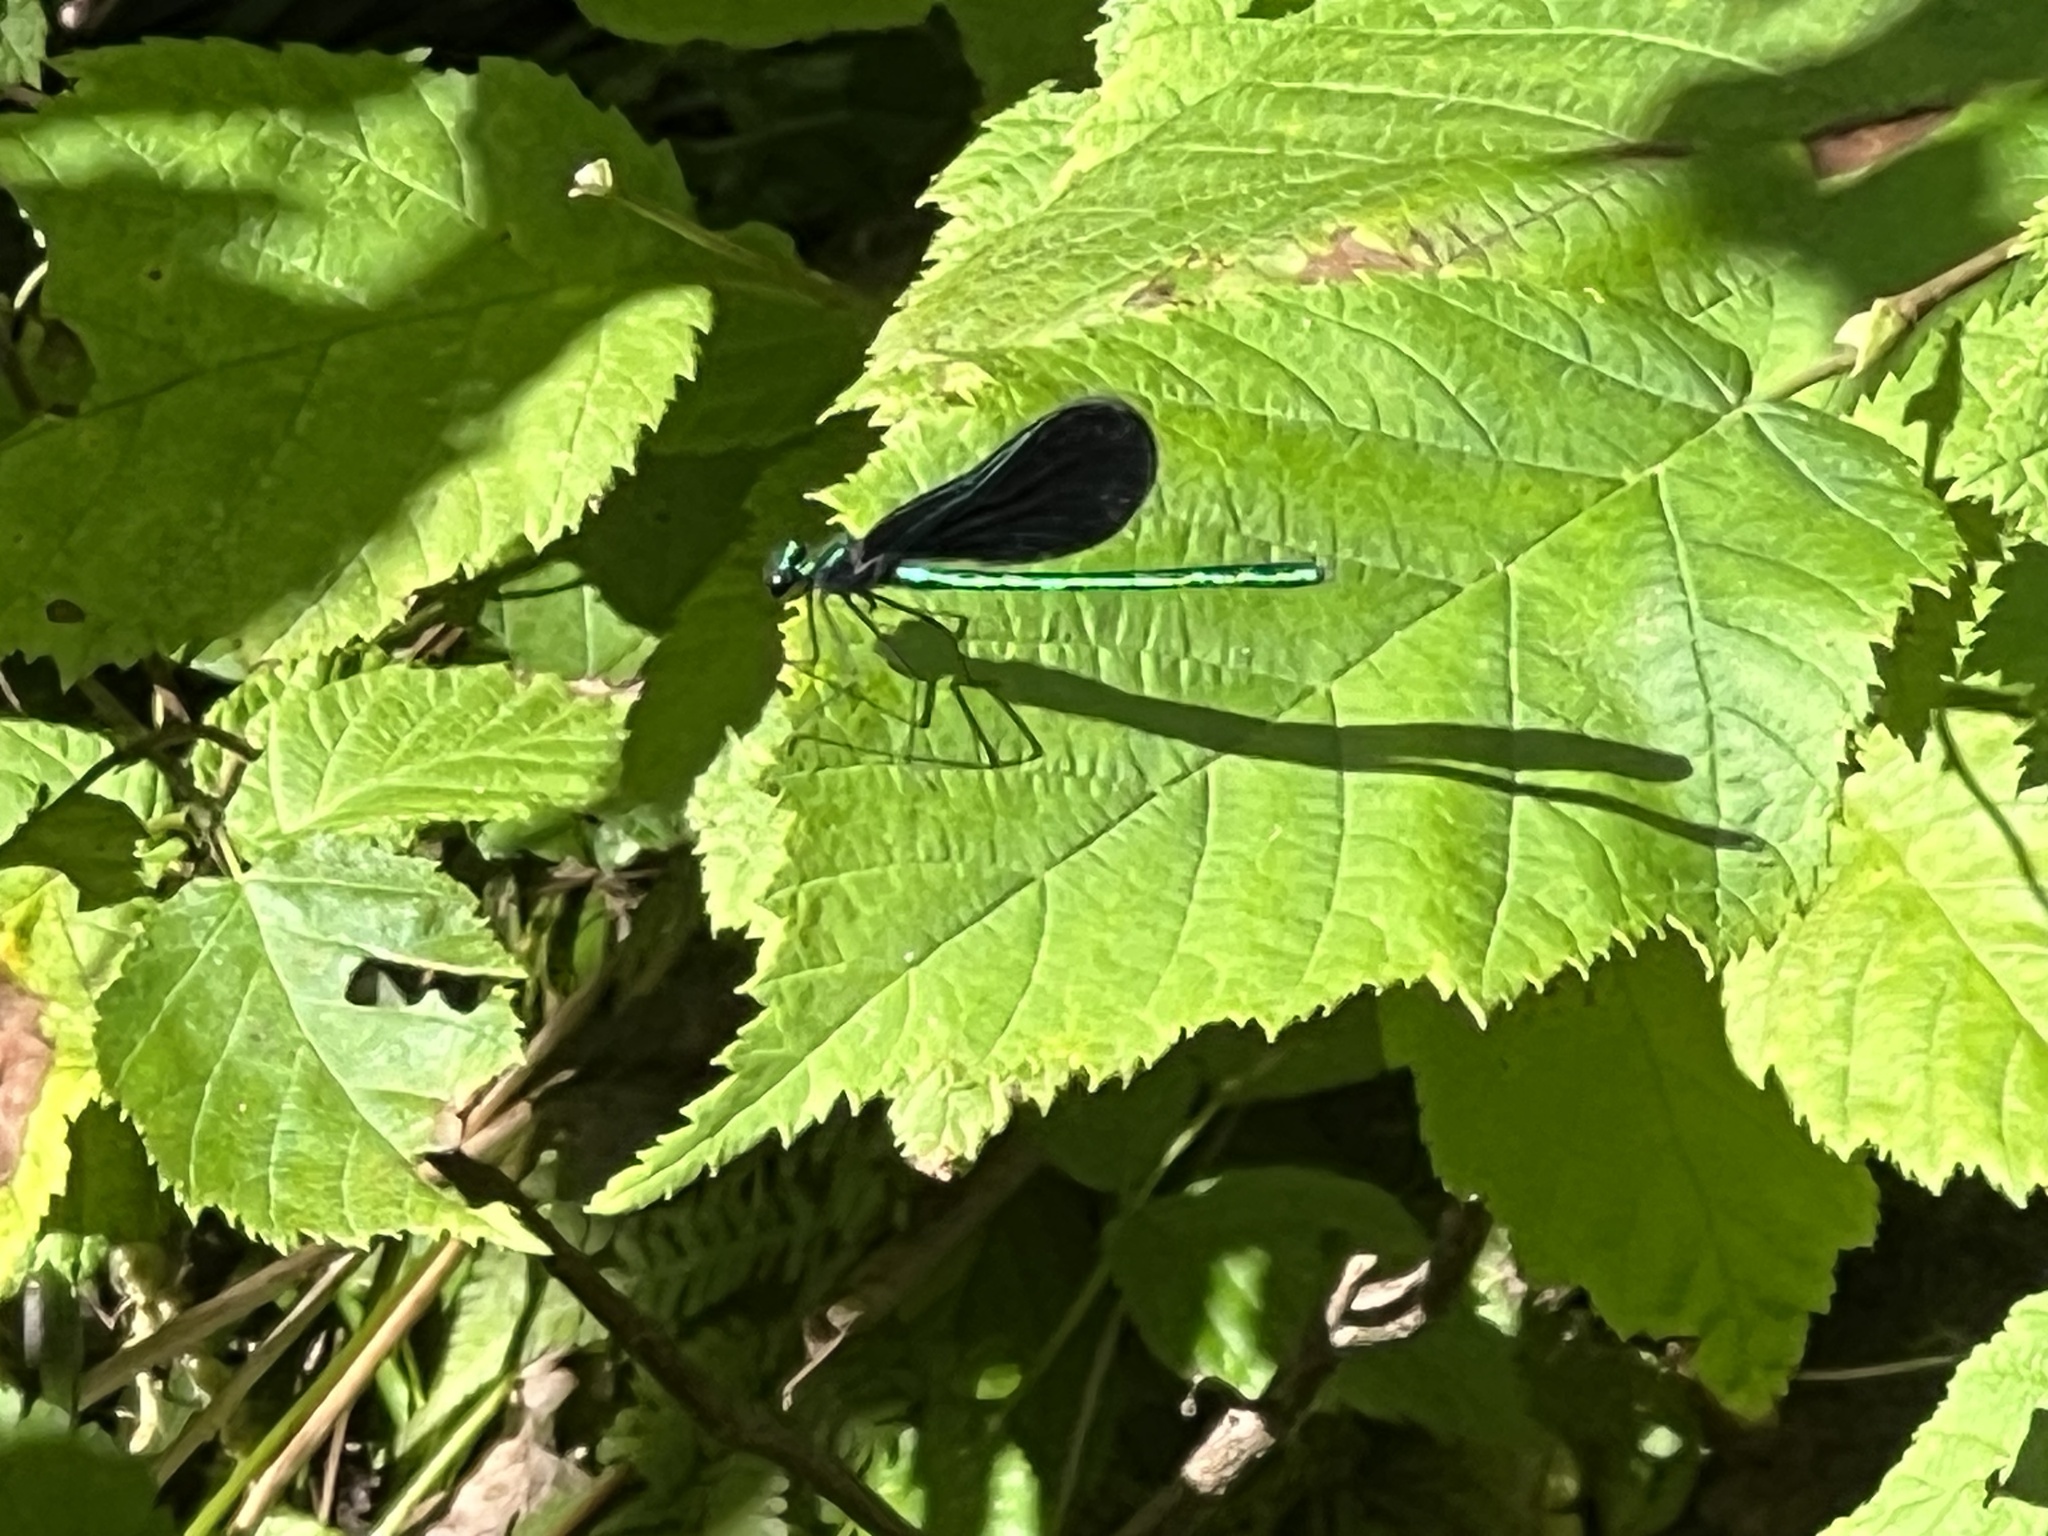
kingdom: Animalia
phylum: Arthropoda
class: Insecta
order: Odonata
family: Calopterygidae
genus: Calopteryx
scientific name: Calopteryx maculata
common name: Ebony jewelwing
